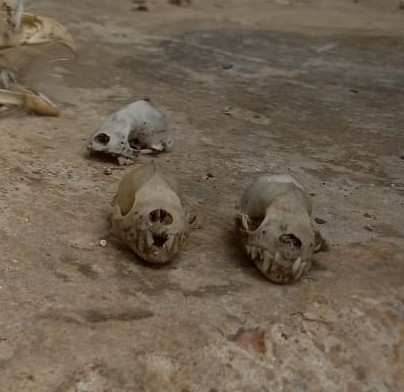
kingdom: Animalia
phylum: Chordata
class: Mammalia
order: Chiroptera
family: Phyllostomidae
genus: Artibeus
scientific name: Artibeus jamaicensis
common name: Jamaican fruit-eating bat
